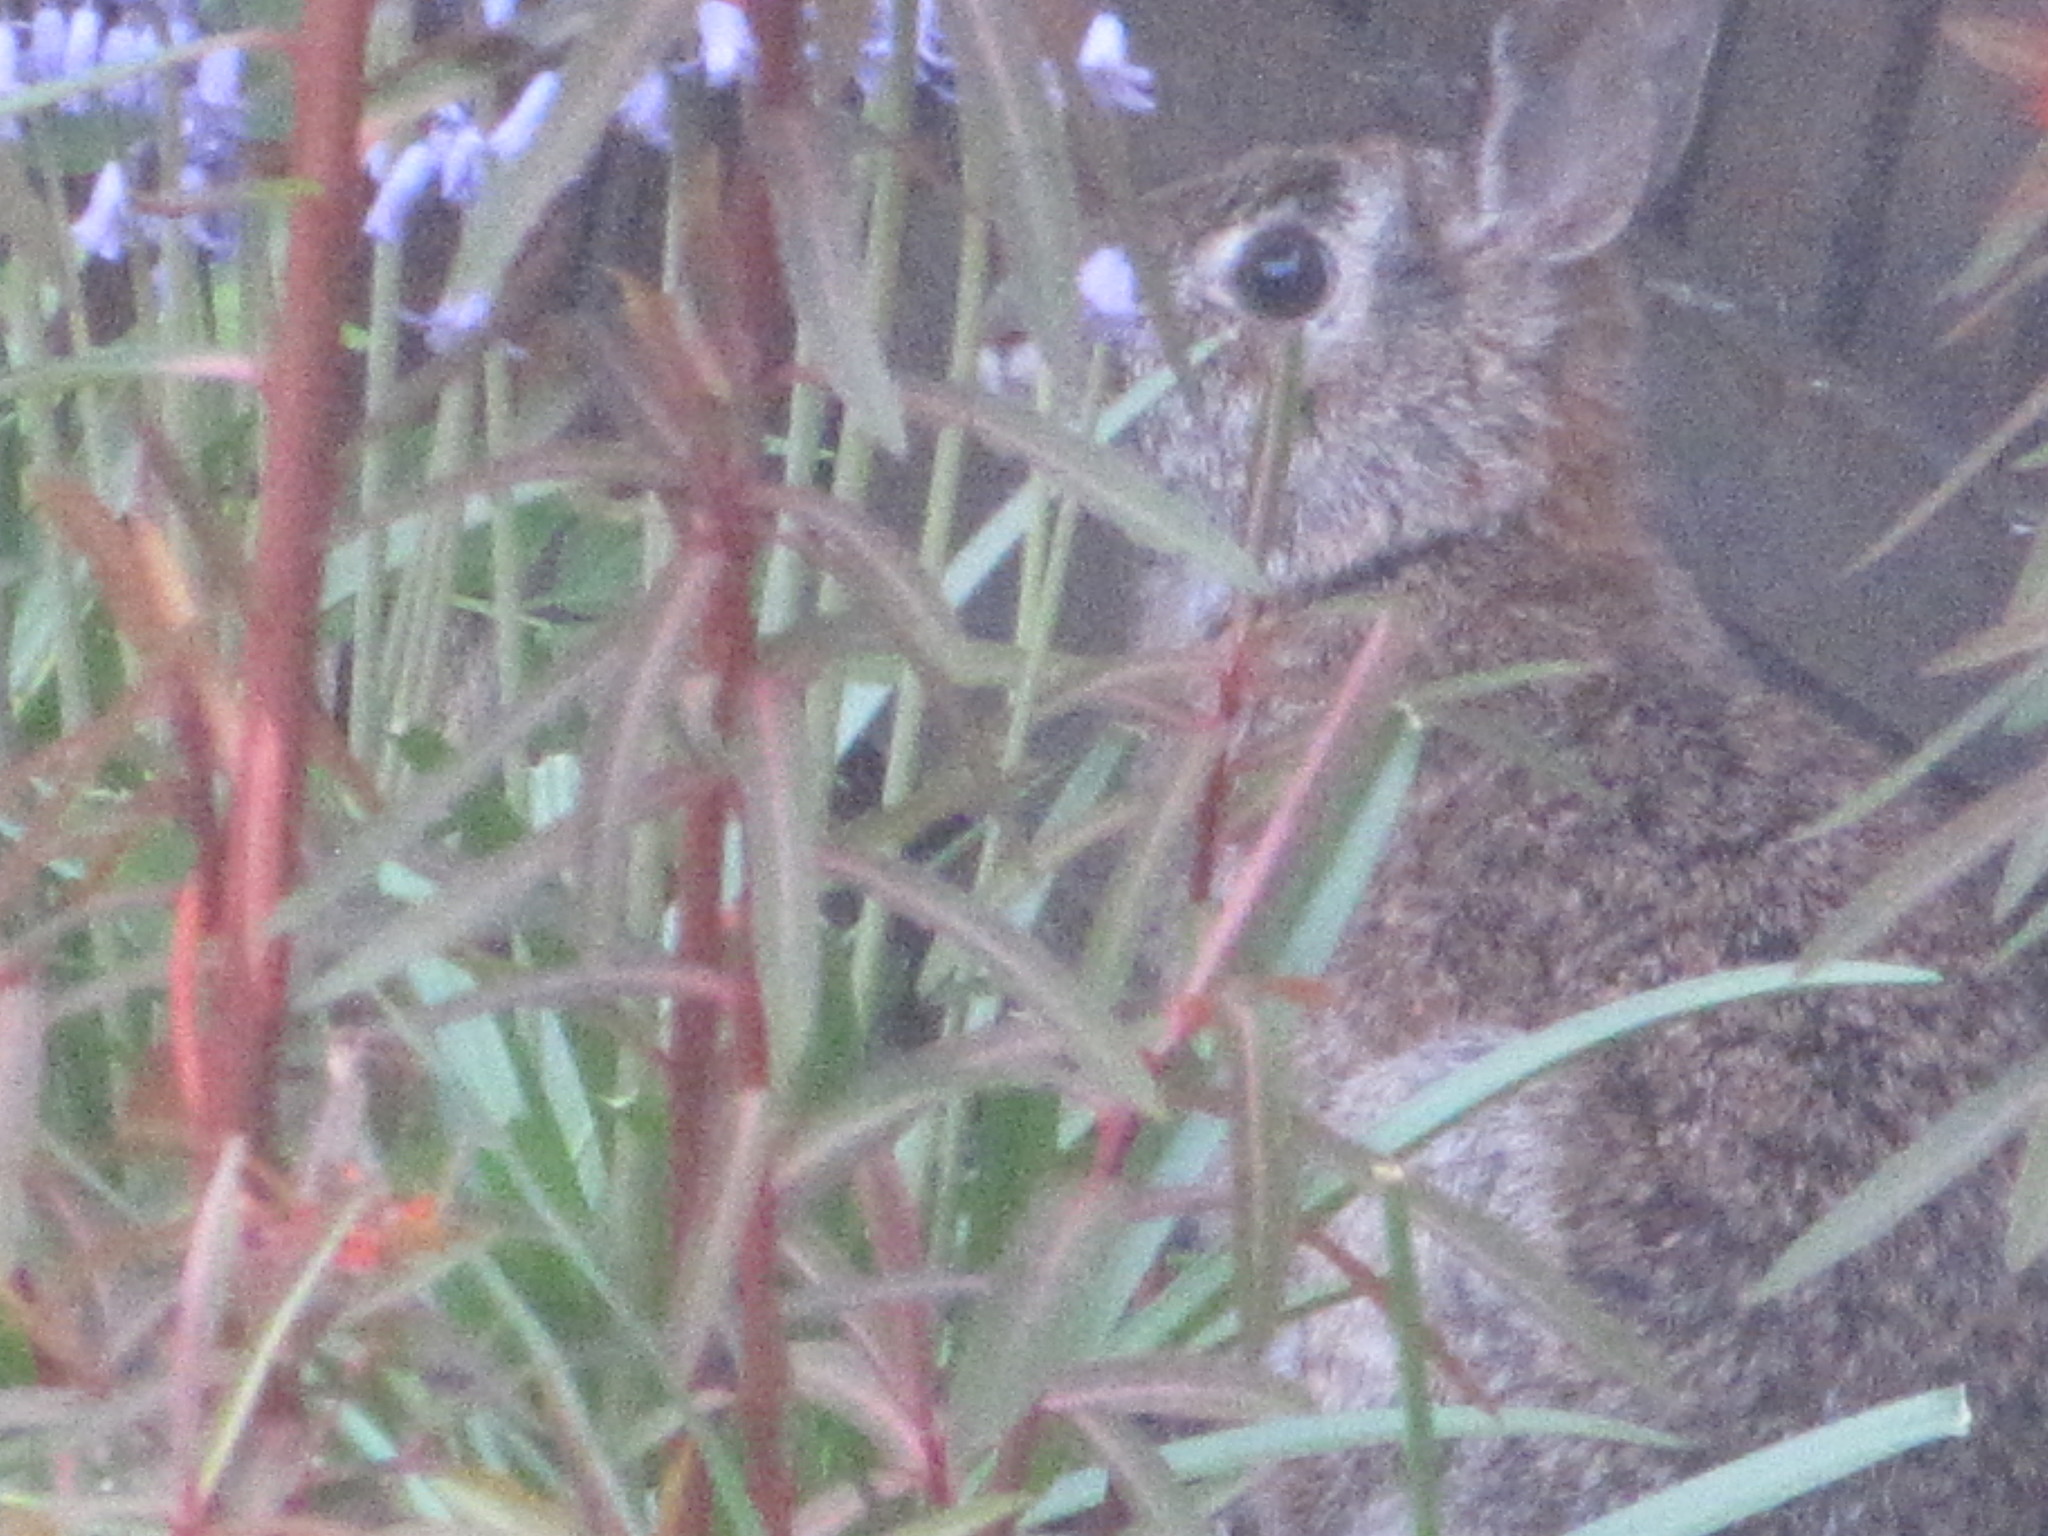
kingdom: Animalia
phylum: Chordata
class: Mammalia
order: Lagomorpha
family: Leporidae
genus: Sylvilagus
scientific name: Sylvilagus floridanus
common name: Eastern cottontail
